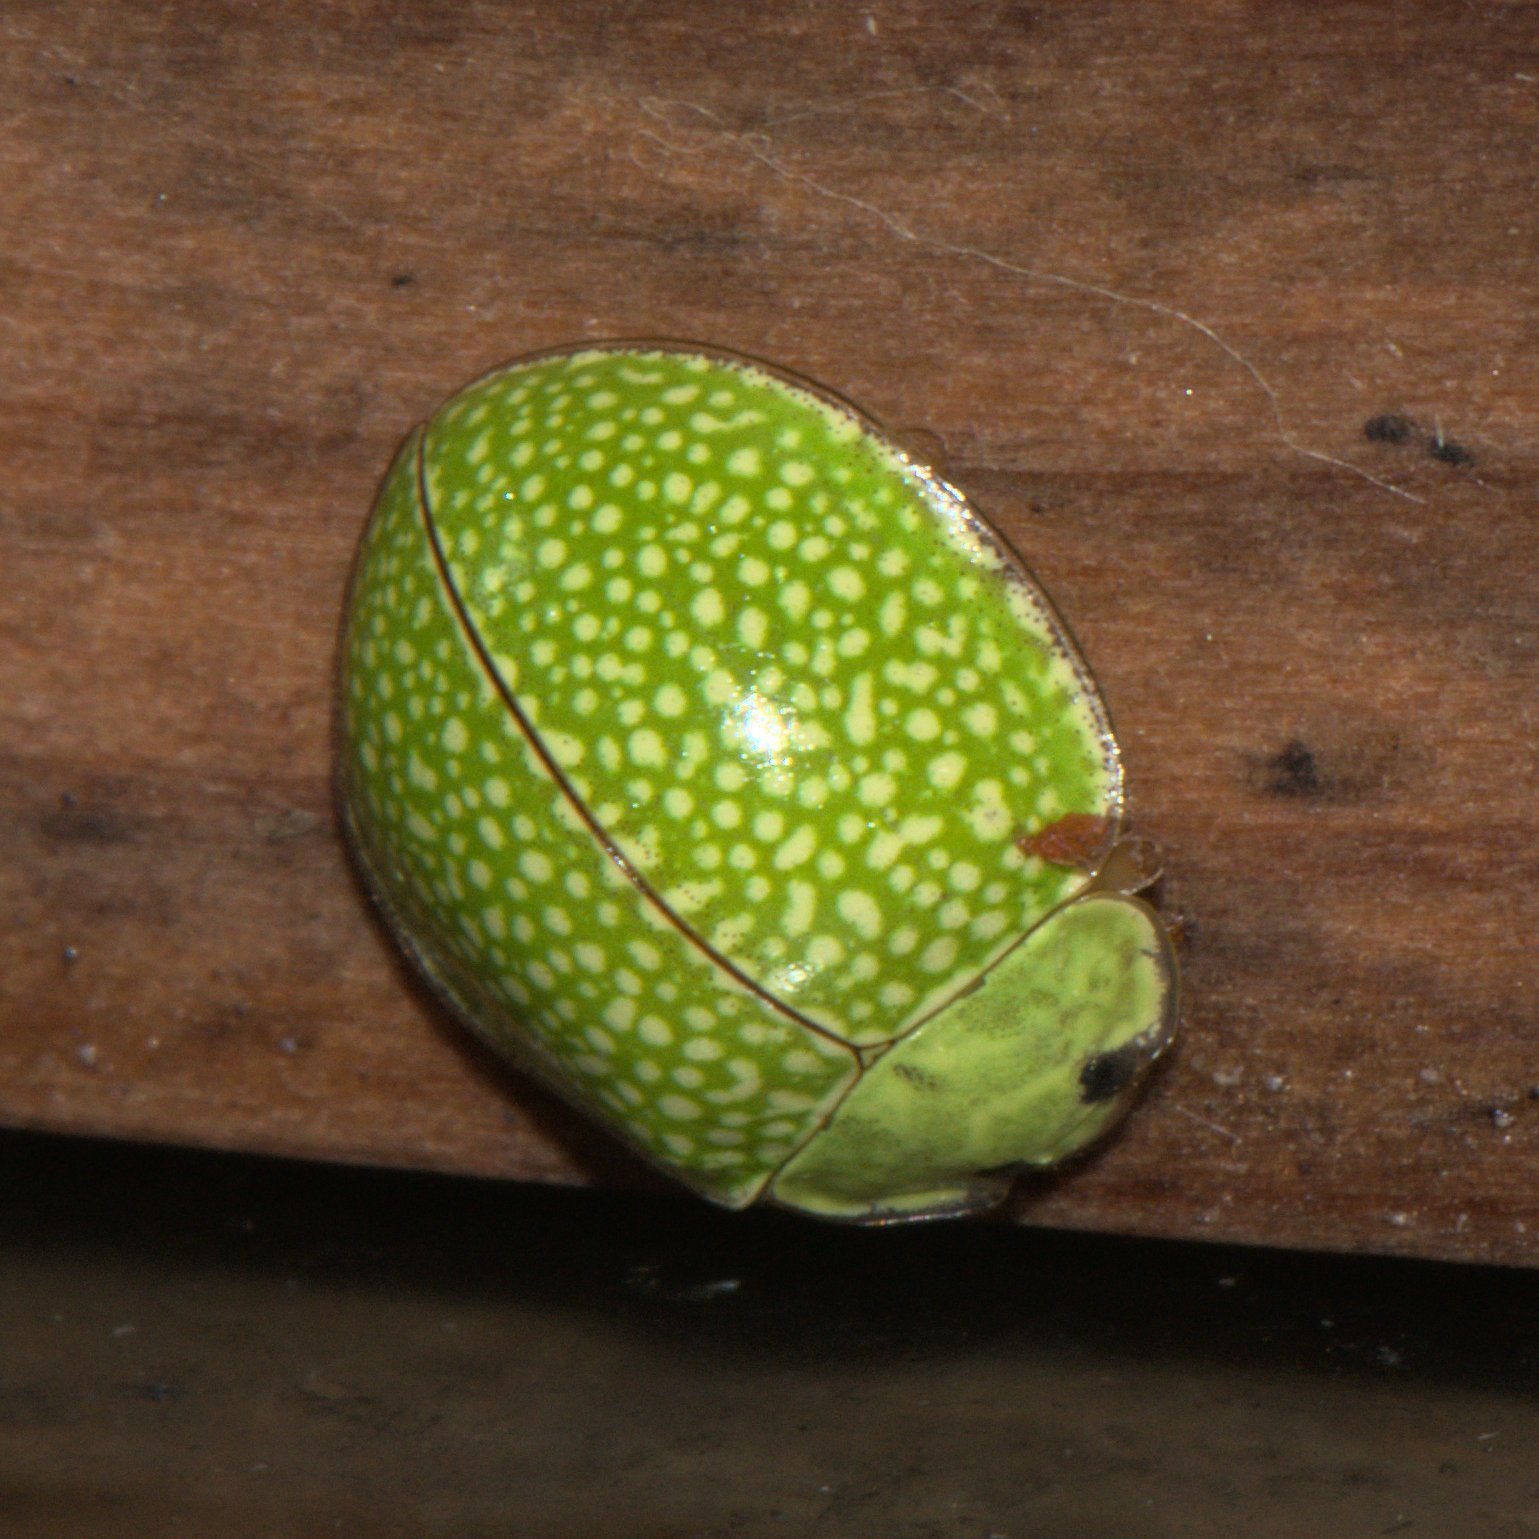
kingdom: Animalia
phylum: Arthropoda
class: Insecta
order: Coleoptera
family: Coccinellidae
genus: Calvia
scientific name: Calvia
